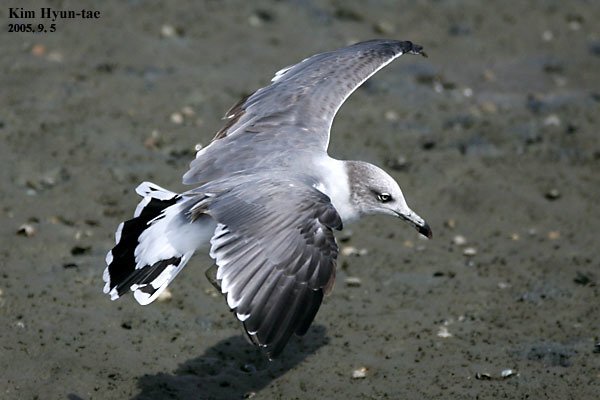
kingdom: Animalia
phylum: Chordata
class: Aves
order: Charadriiformes
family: Laridae
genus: Larus
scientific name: Larus crassirostris
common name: Black-tailed gull
